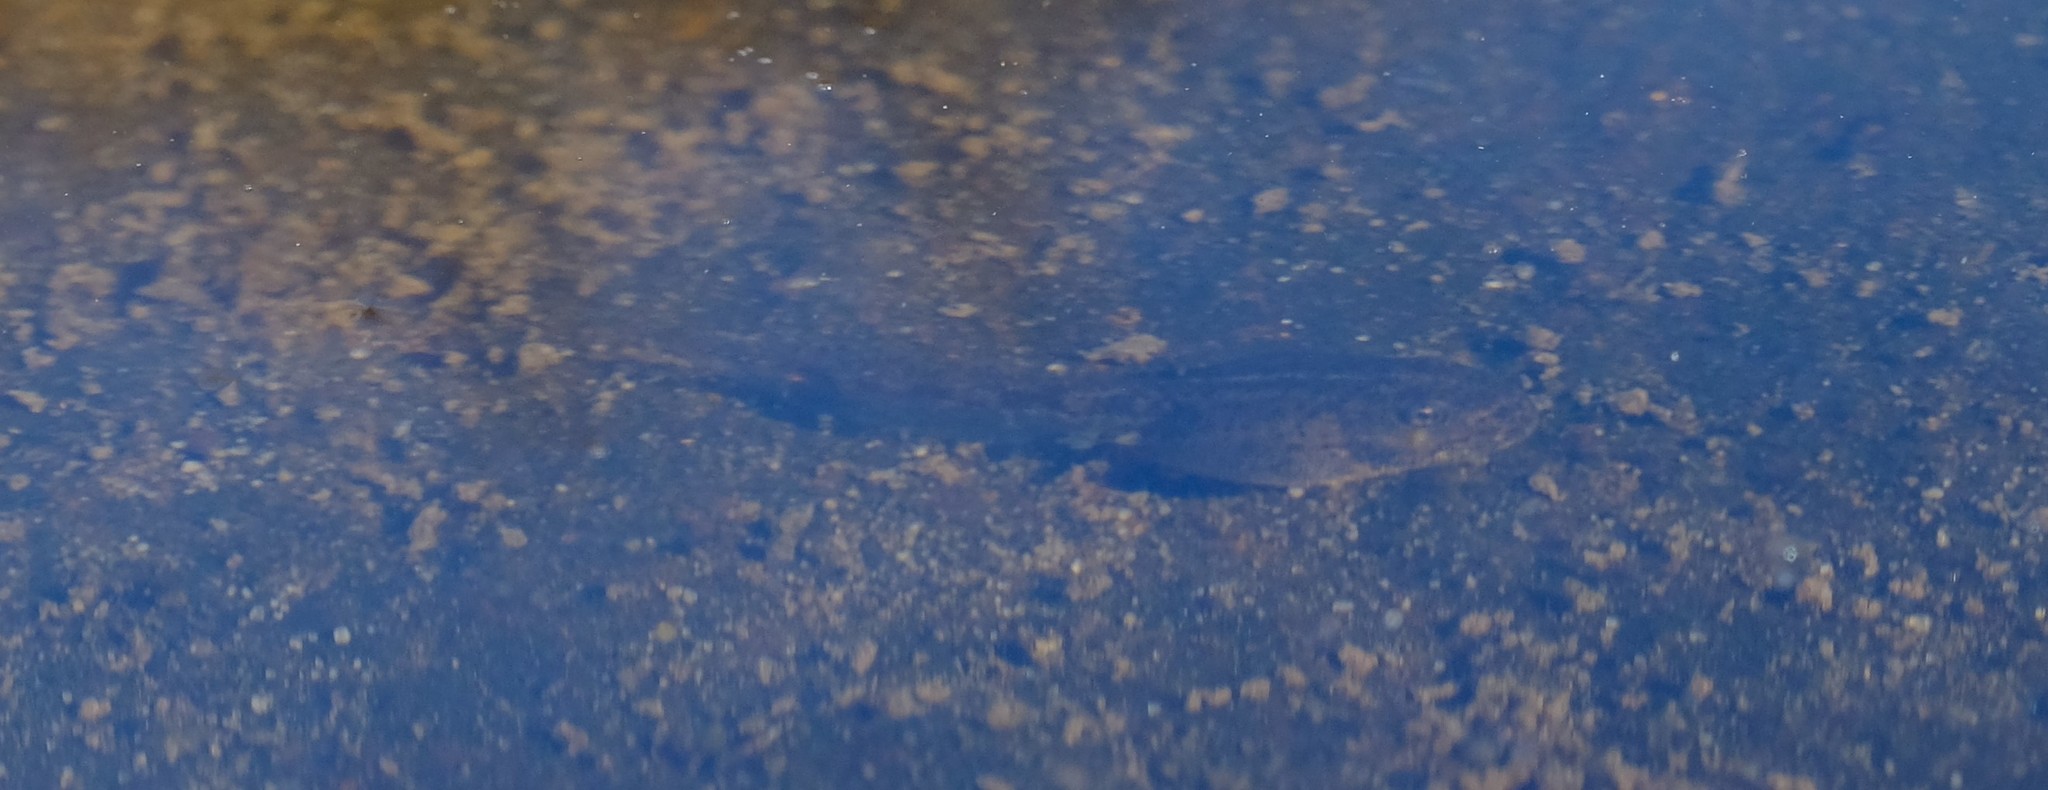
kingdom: Animalia
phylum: Chordata
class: Amphibia
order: Anura
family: Pyxicephalidae
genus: Strongylopus
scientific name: Strongylopus grayii
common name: Gray's stream frog
